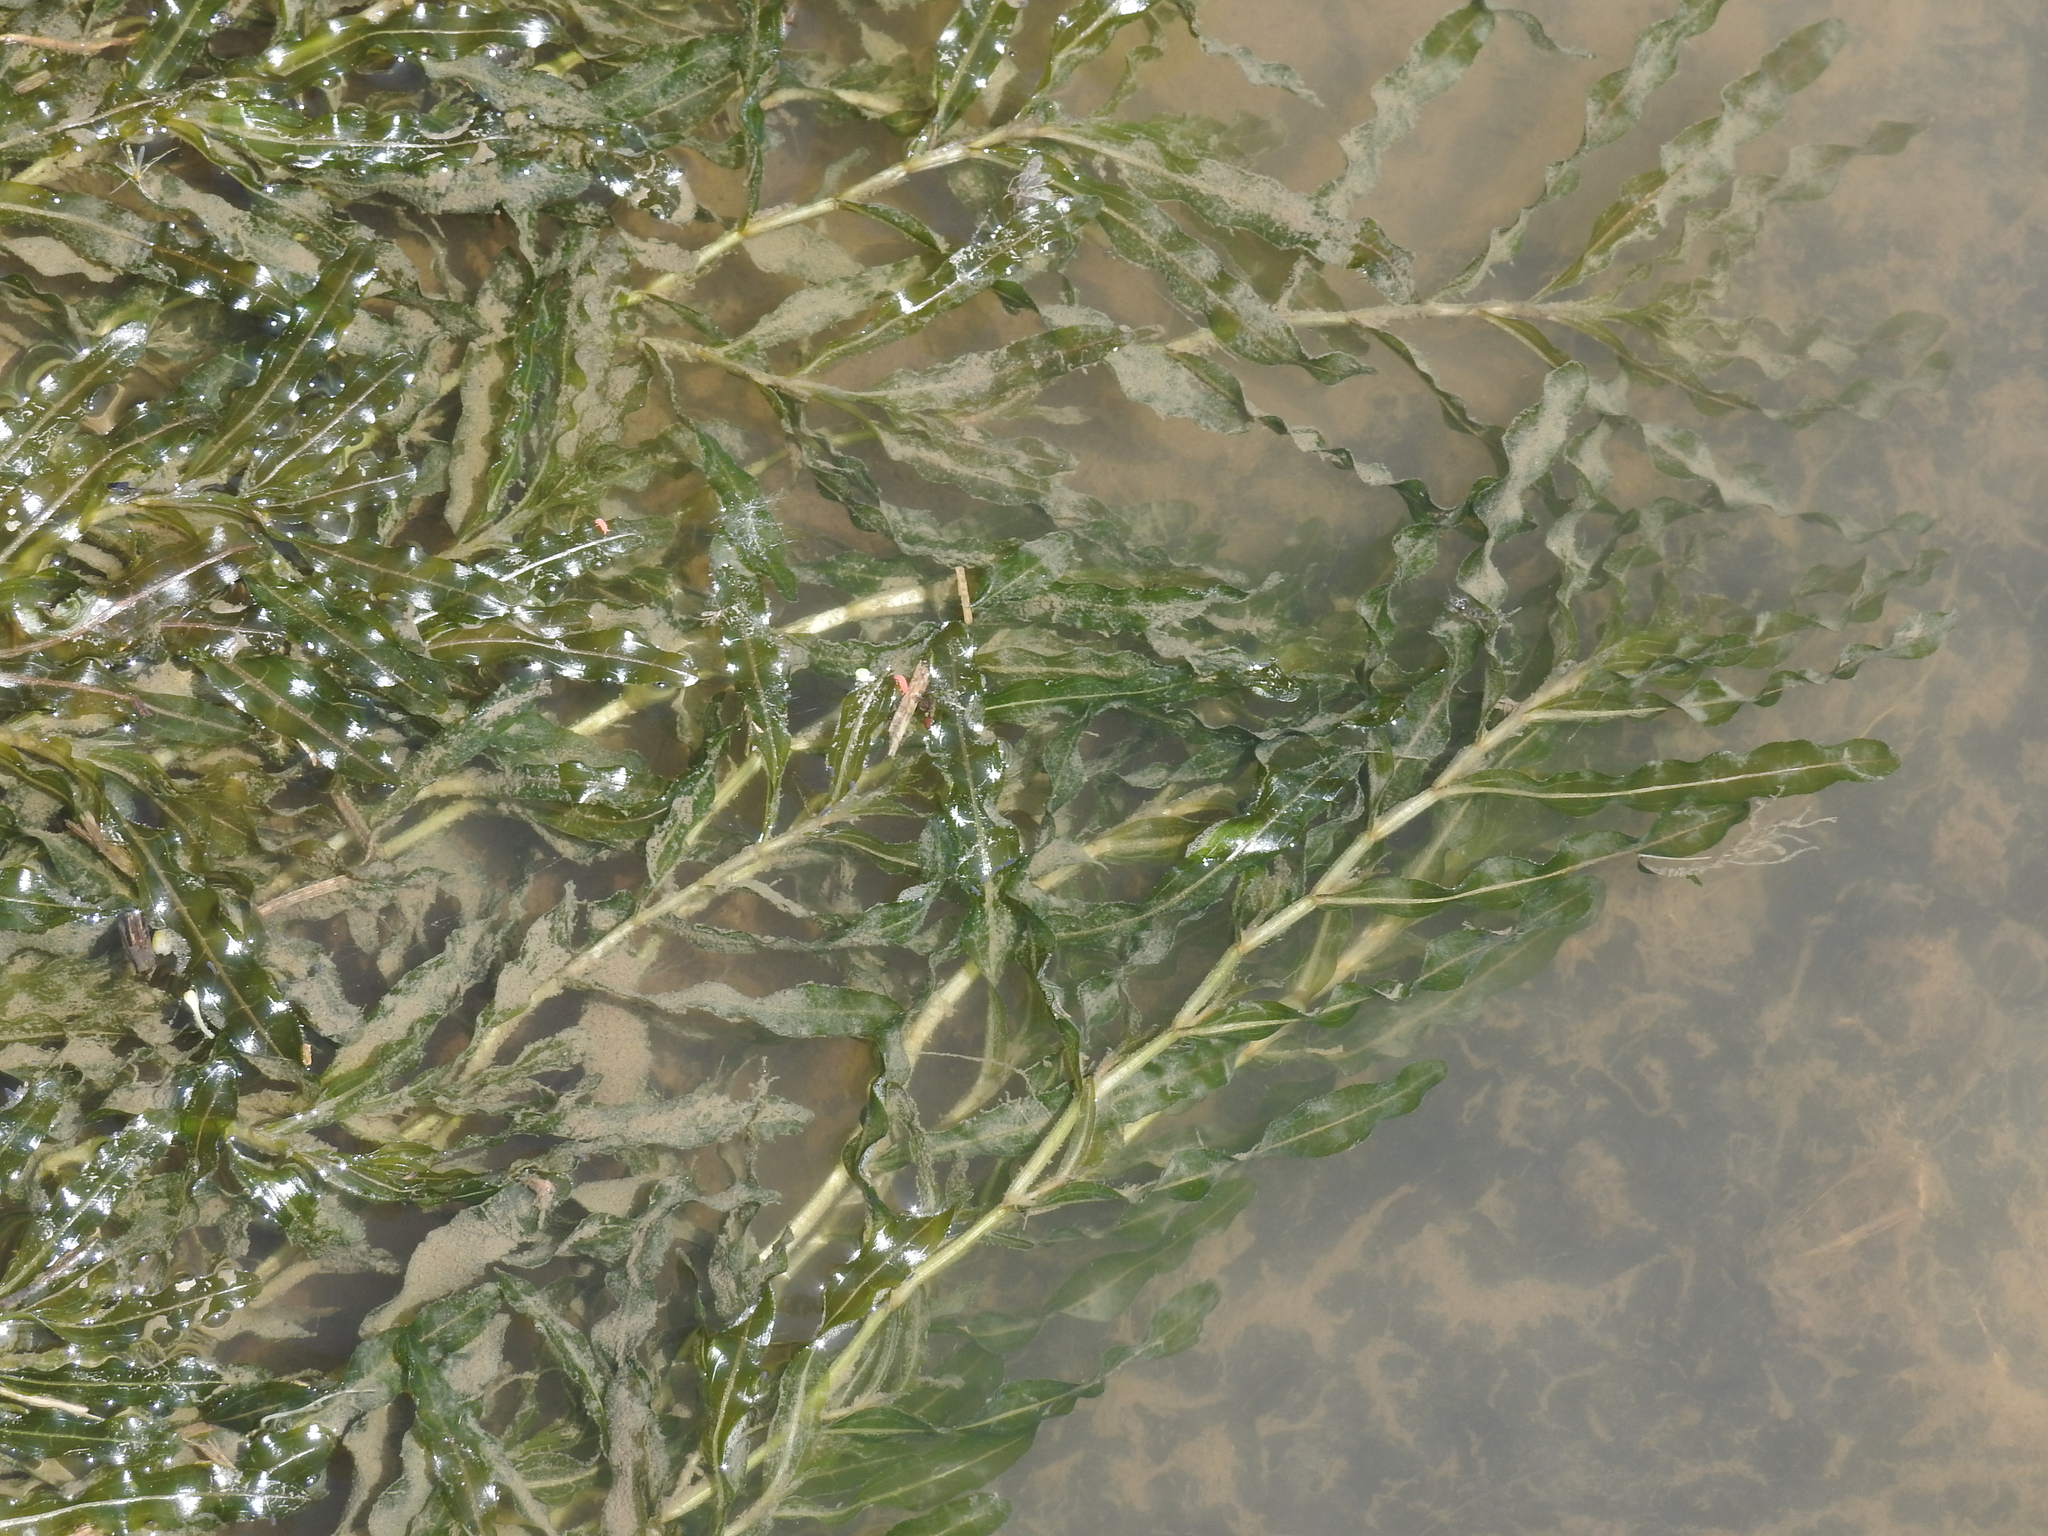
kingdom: Plantae
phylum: Tracheophyta
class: Liliopsida
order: Alismatales
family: Potamogetonaceae
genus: Potamogeton
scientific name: Potamogeton crispus
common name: Curled pondweed
